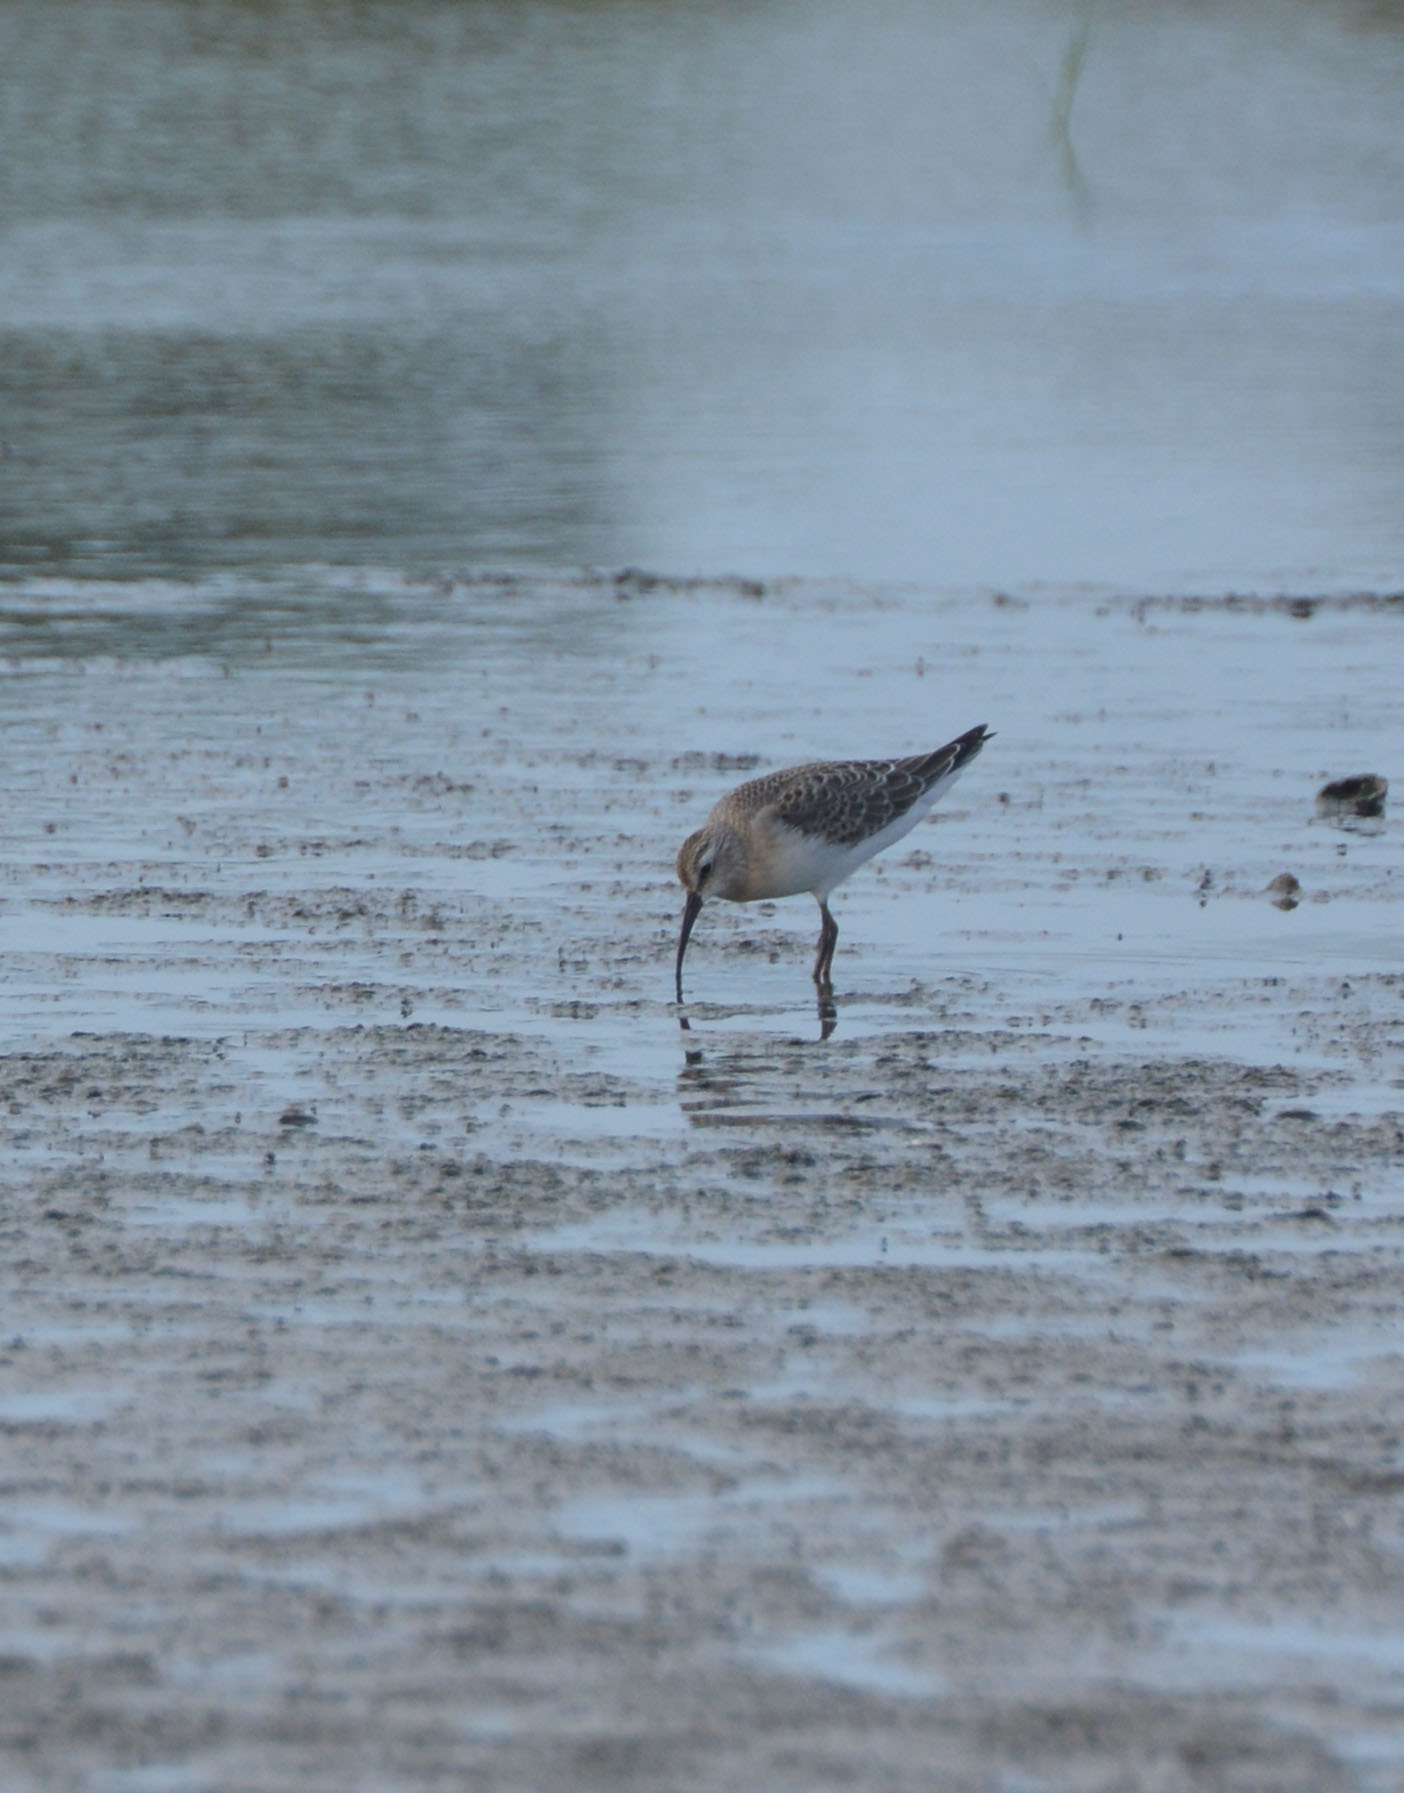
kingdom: Animalia
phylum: Chordata
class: Aves
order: Charadriiformes
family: Scolopacidae
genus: Calidris
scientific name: Calidris ferruginea
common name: Curlew sandpiper
